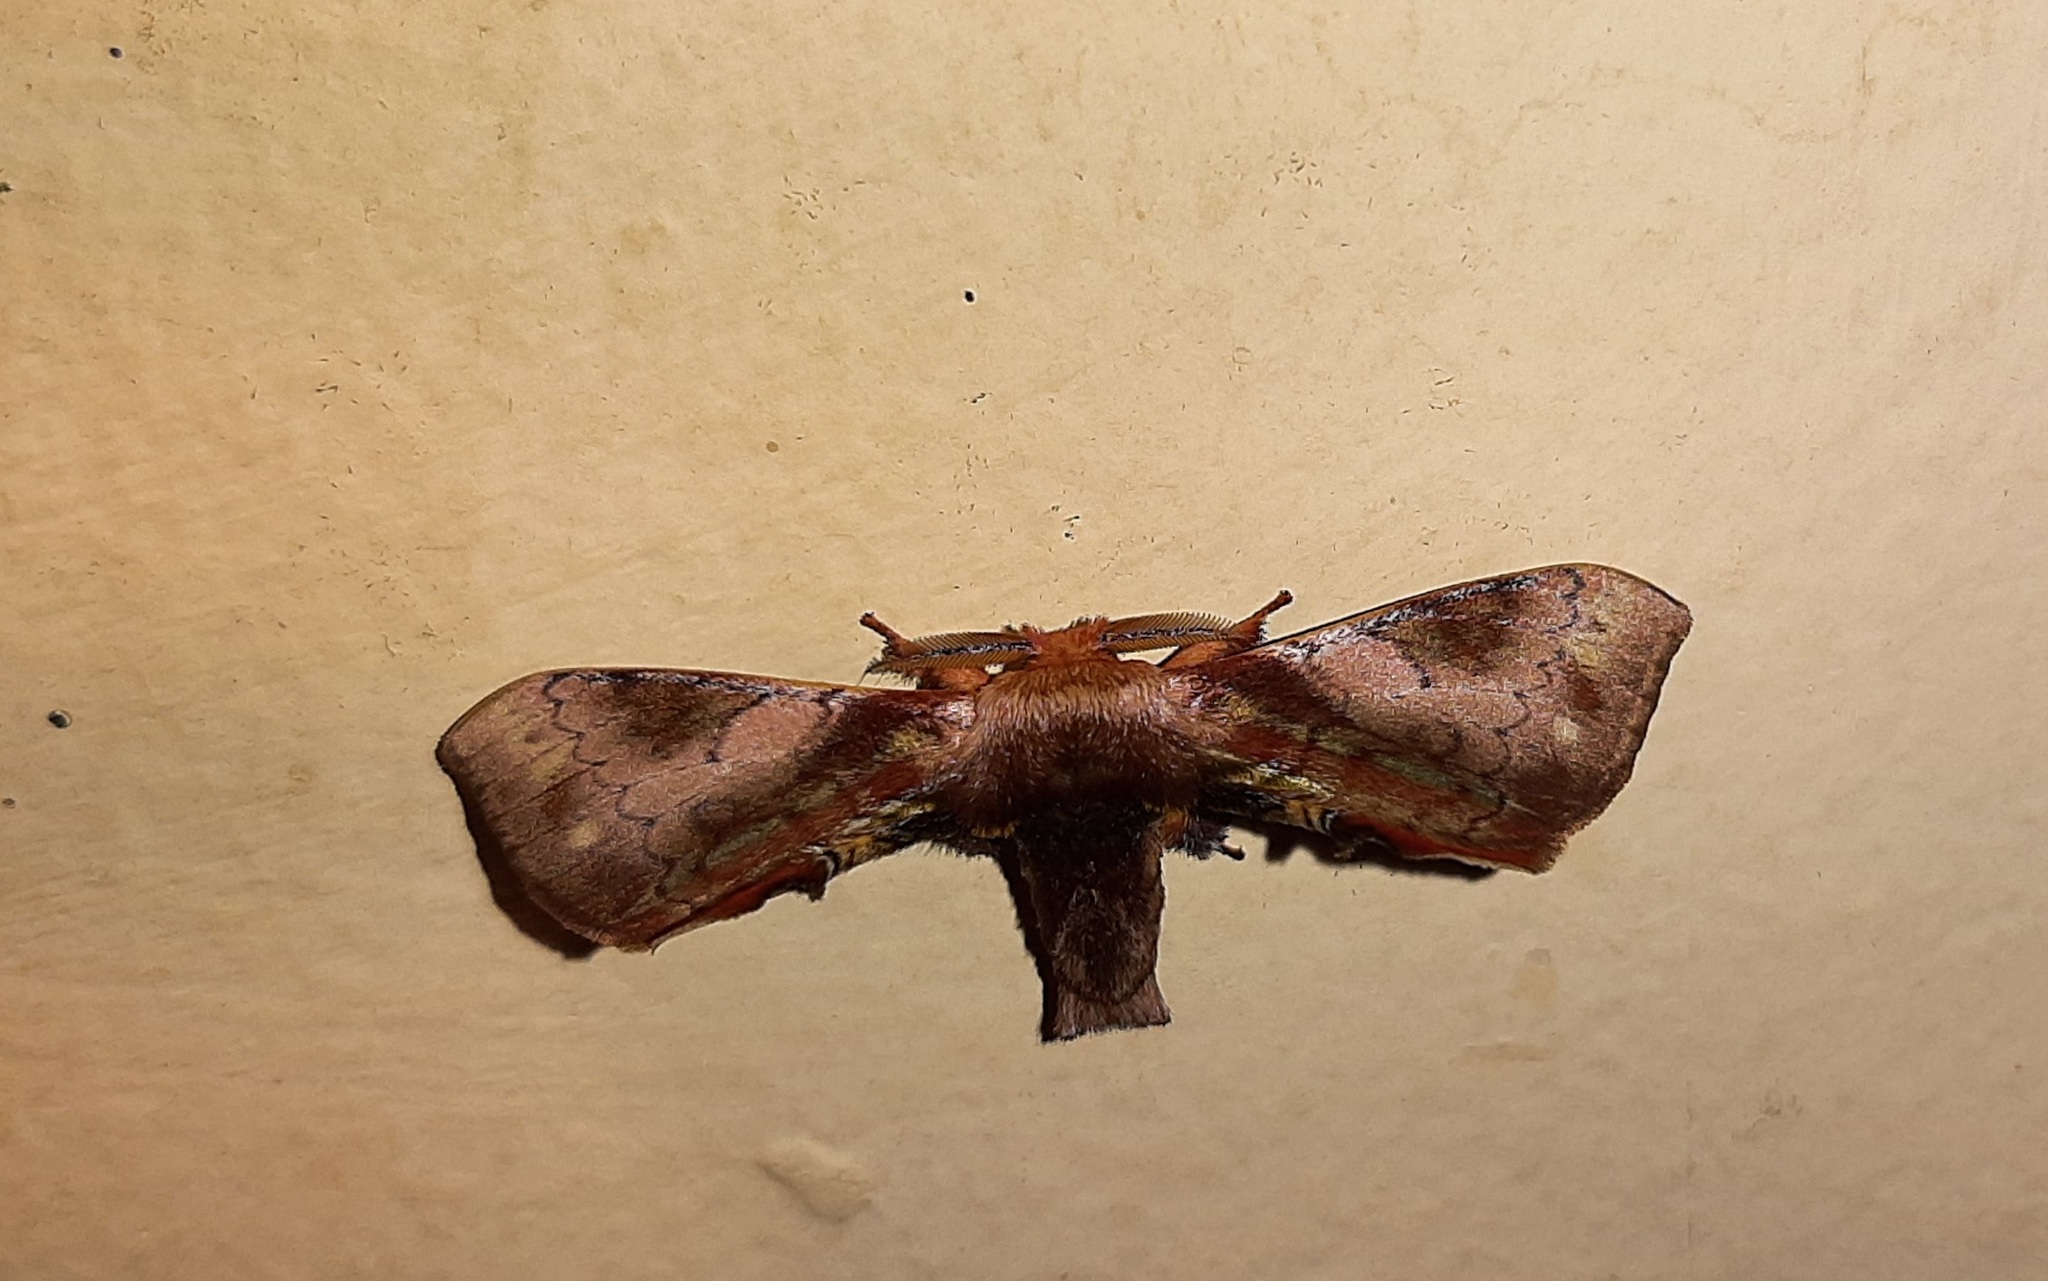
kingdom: Animalia
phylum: Arthropoda
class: Insecta
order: Lepidoptera
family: Bombycidae
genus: Epia
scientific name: Epia vulnerata
